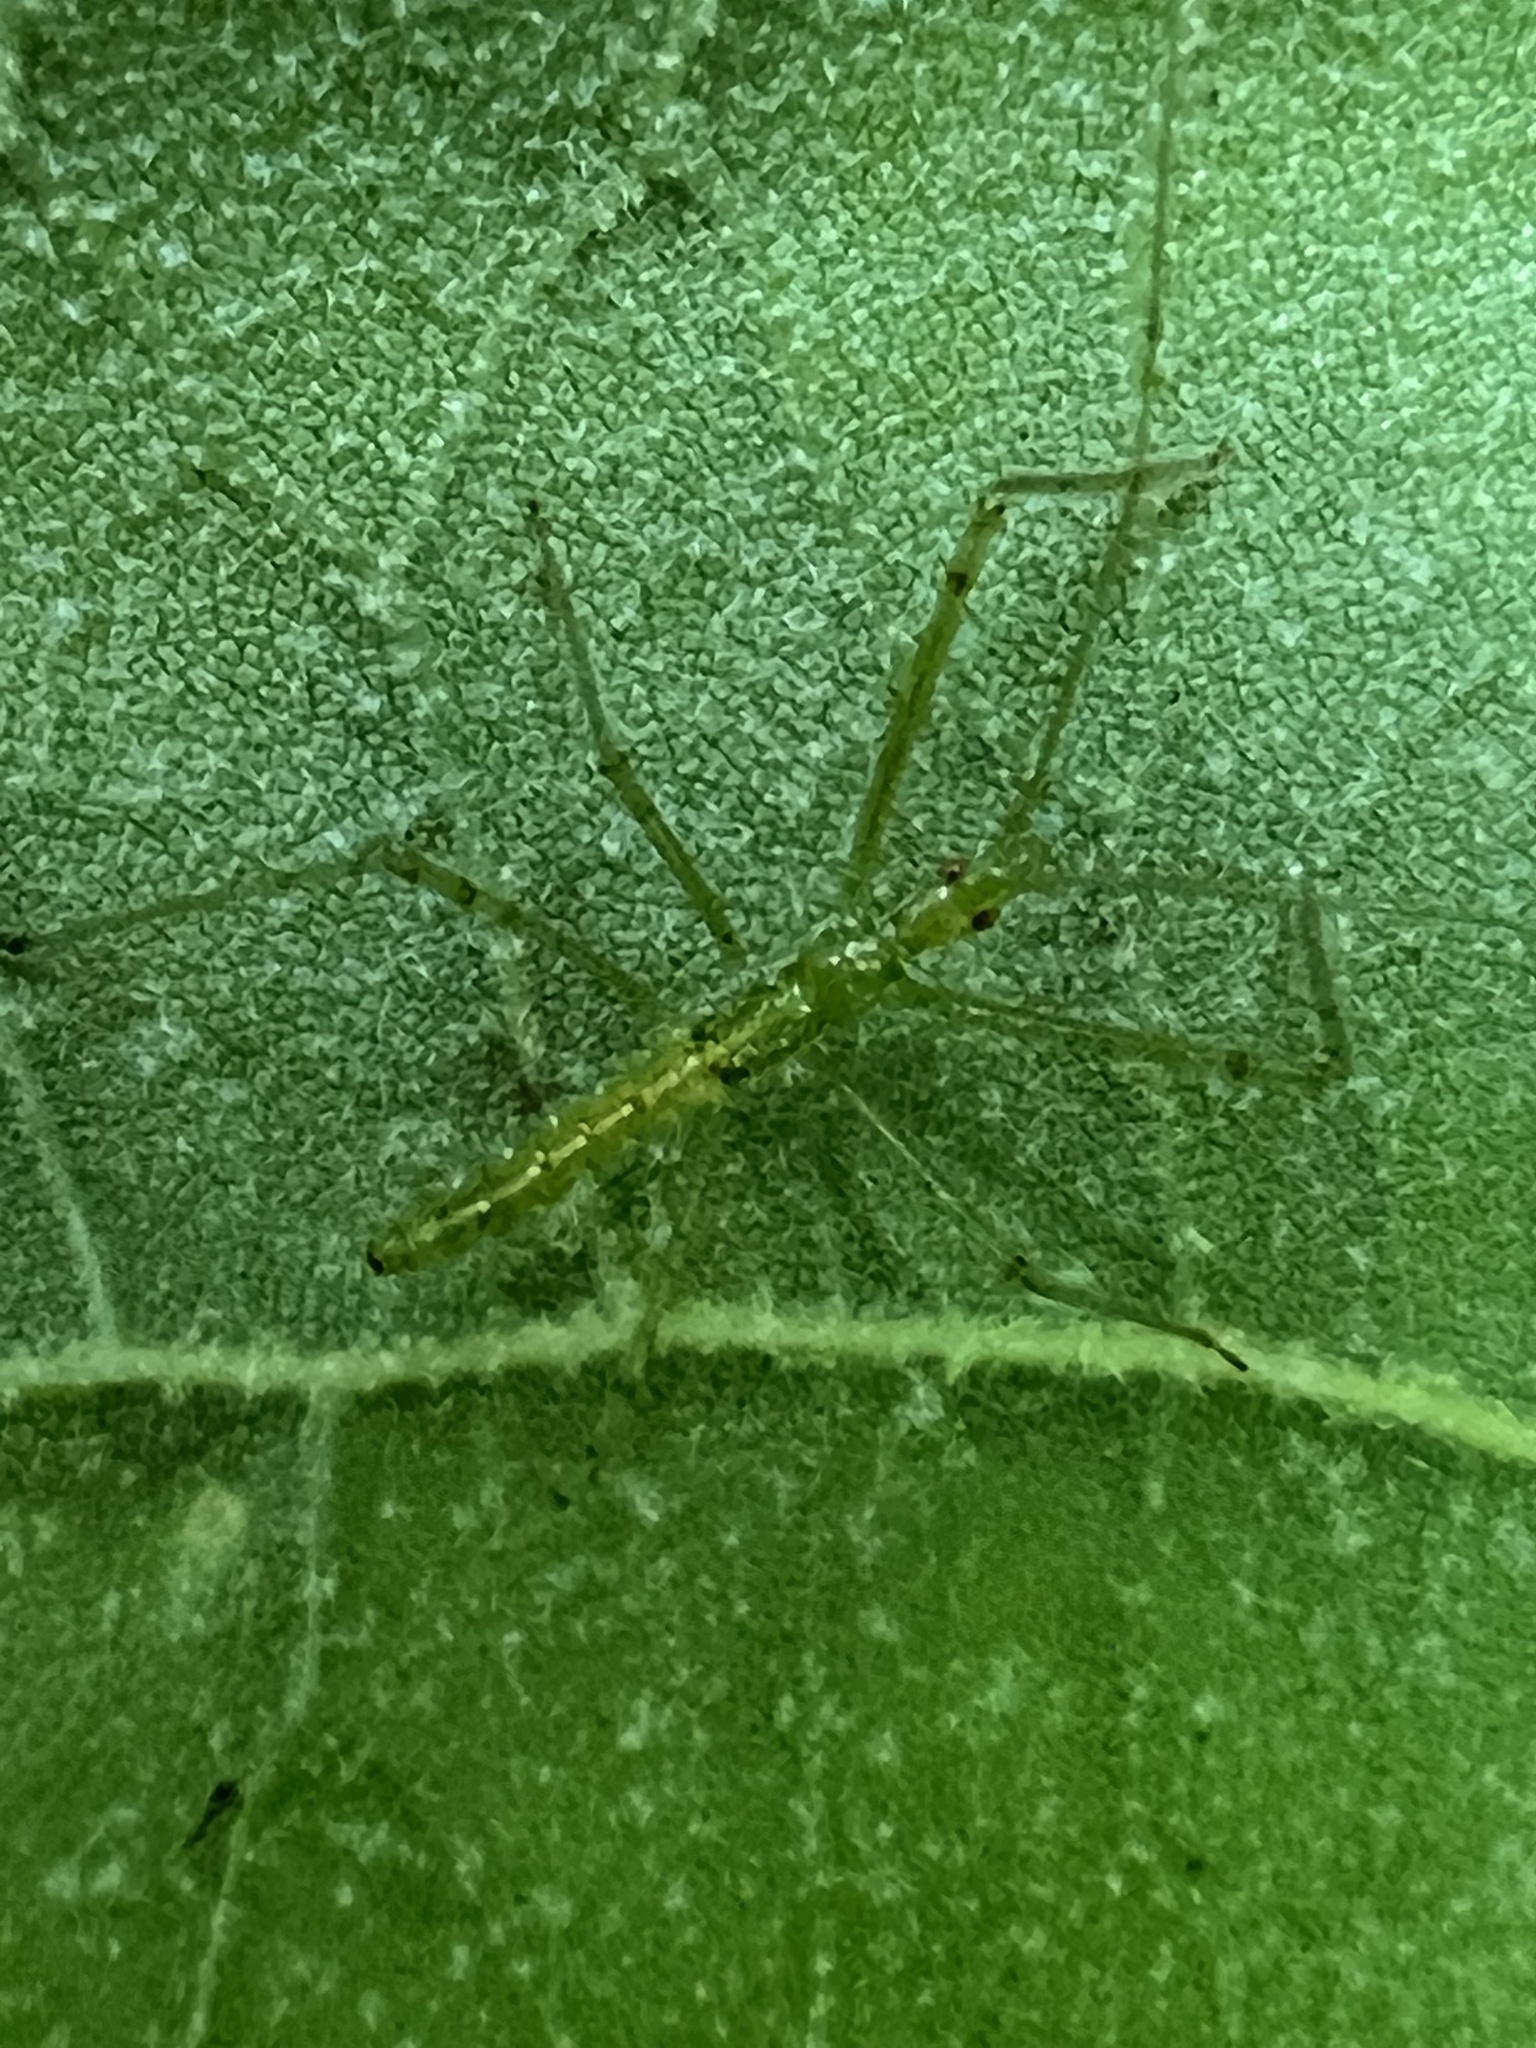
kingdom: Animalia
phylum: Arthropoda
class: Insecta
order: Hemiptera
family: Reduviidae
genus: Zelus
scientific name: Zelus luridus
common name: Pale green assassin bug
